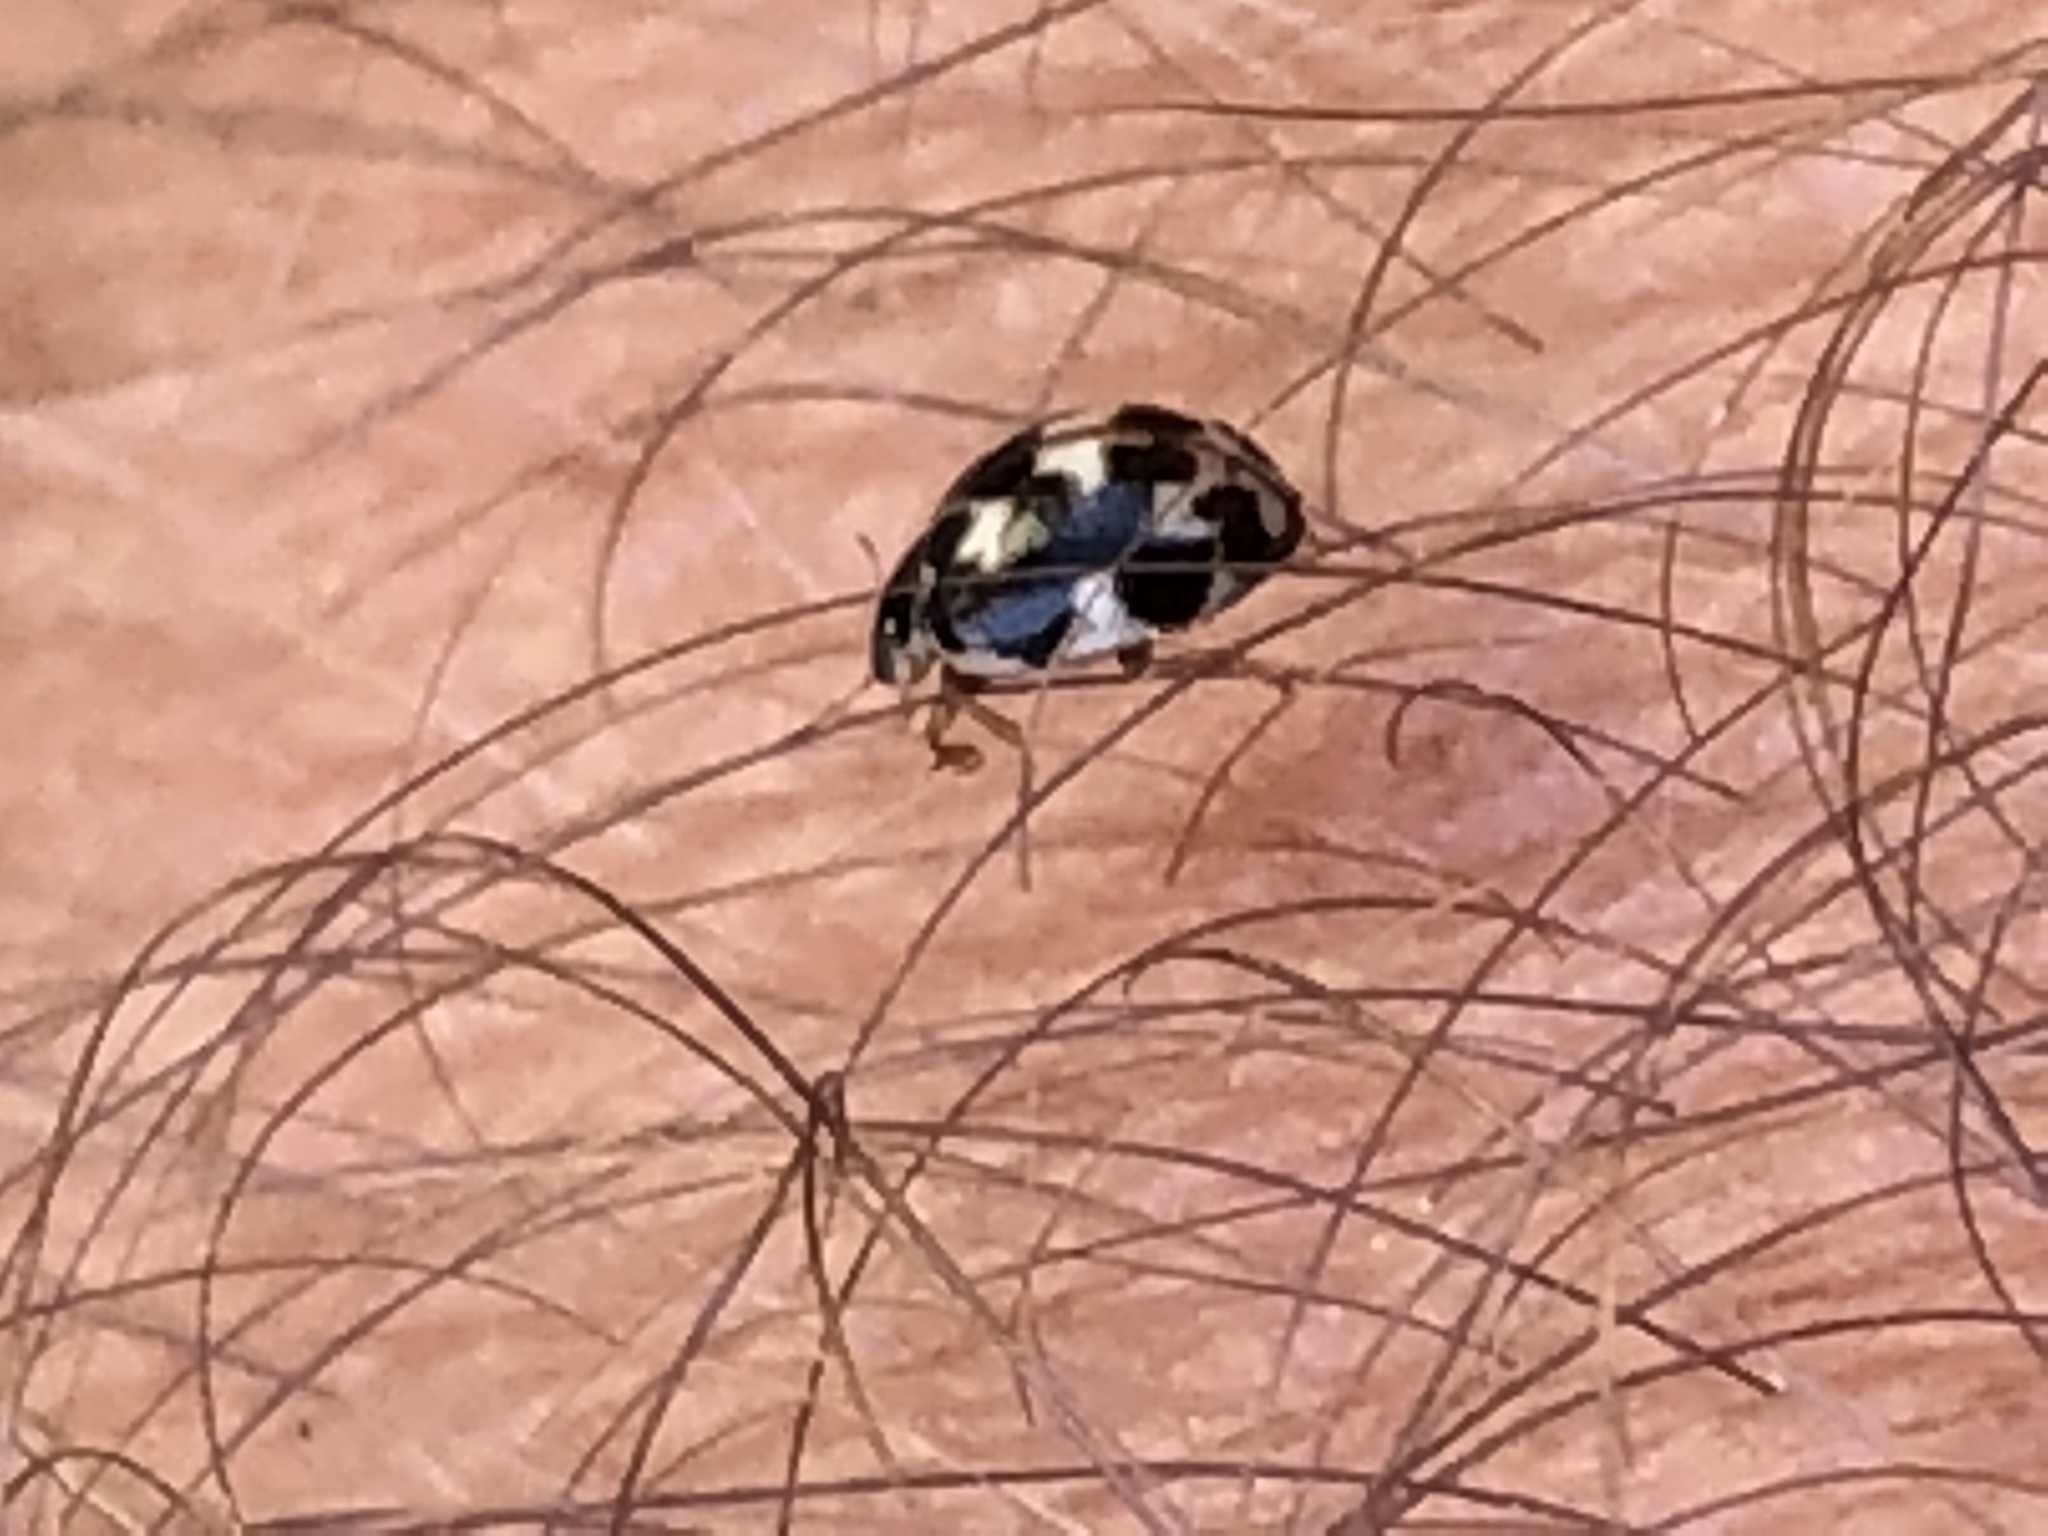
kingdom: Animalia
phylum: Arthropoda
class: Insecta
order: Coleoptera
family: Coccinellidae
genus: Psyllobora
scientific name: Psyllobora vigintimaculata
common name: Ladybird beetle
